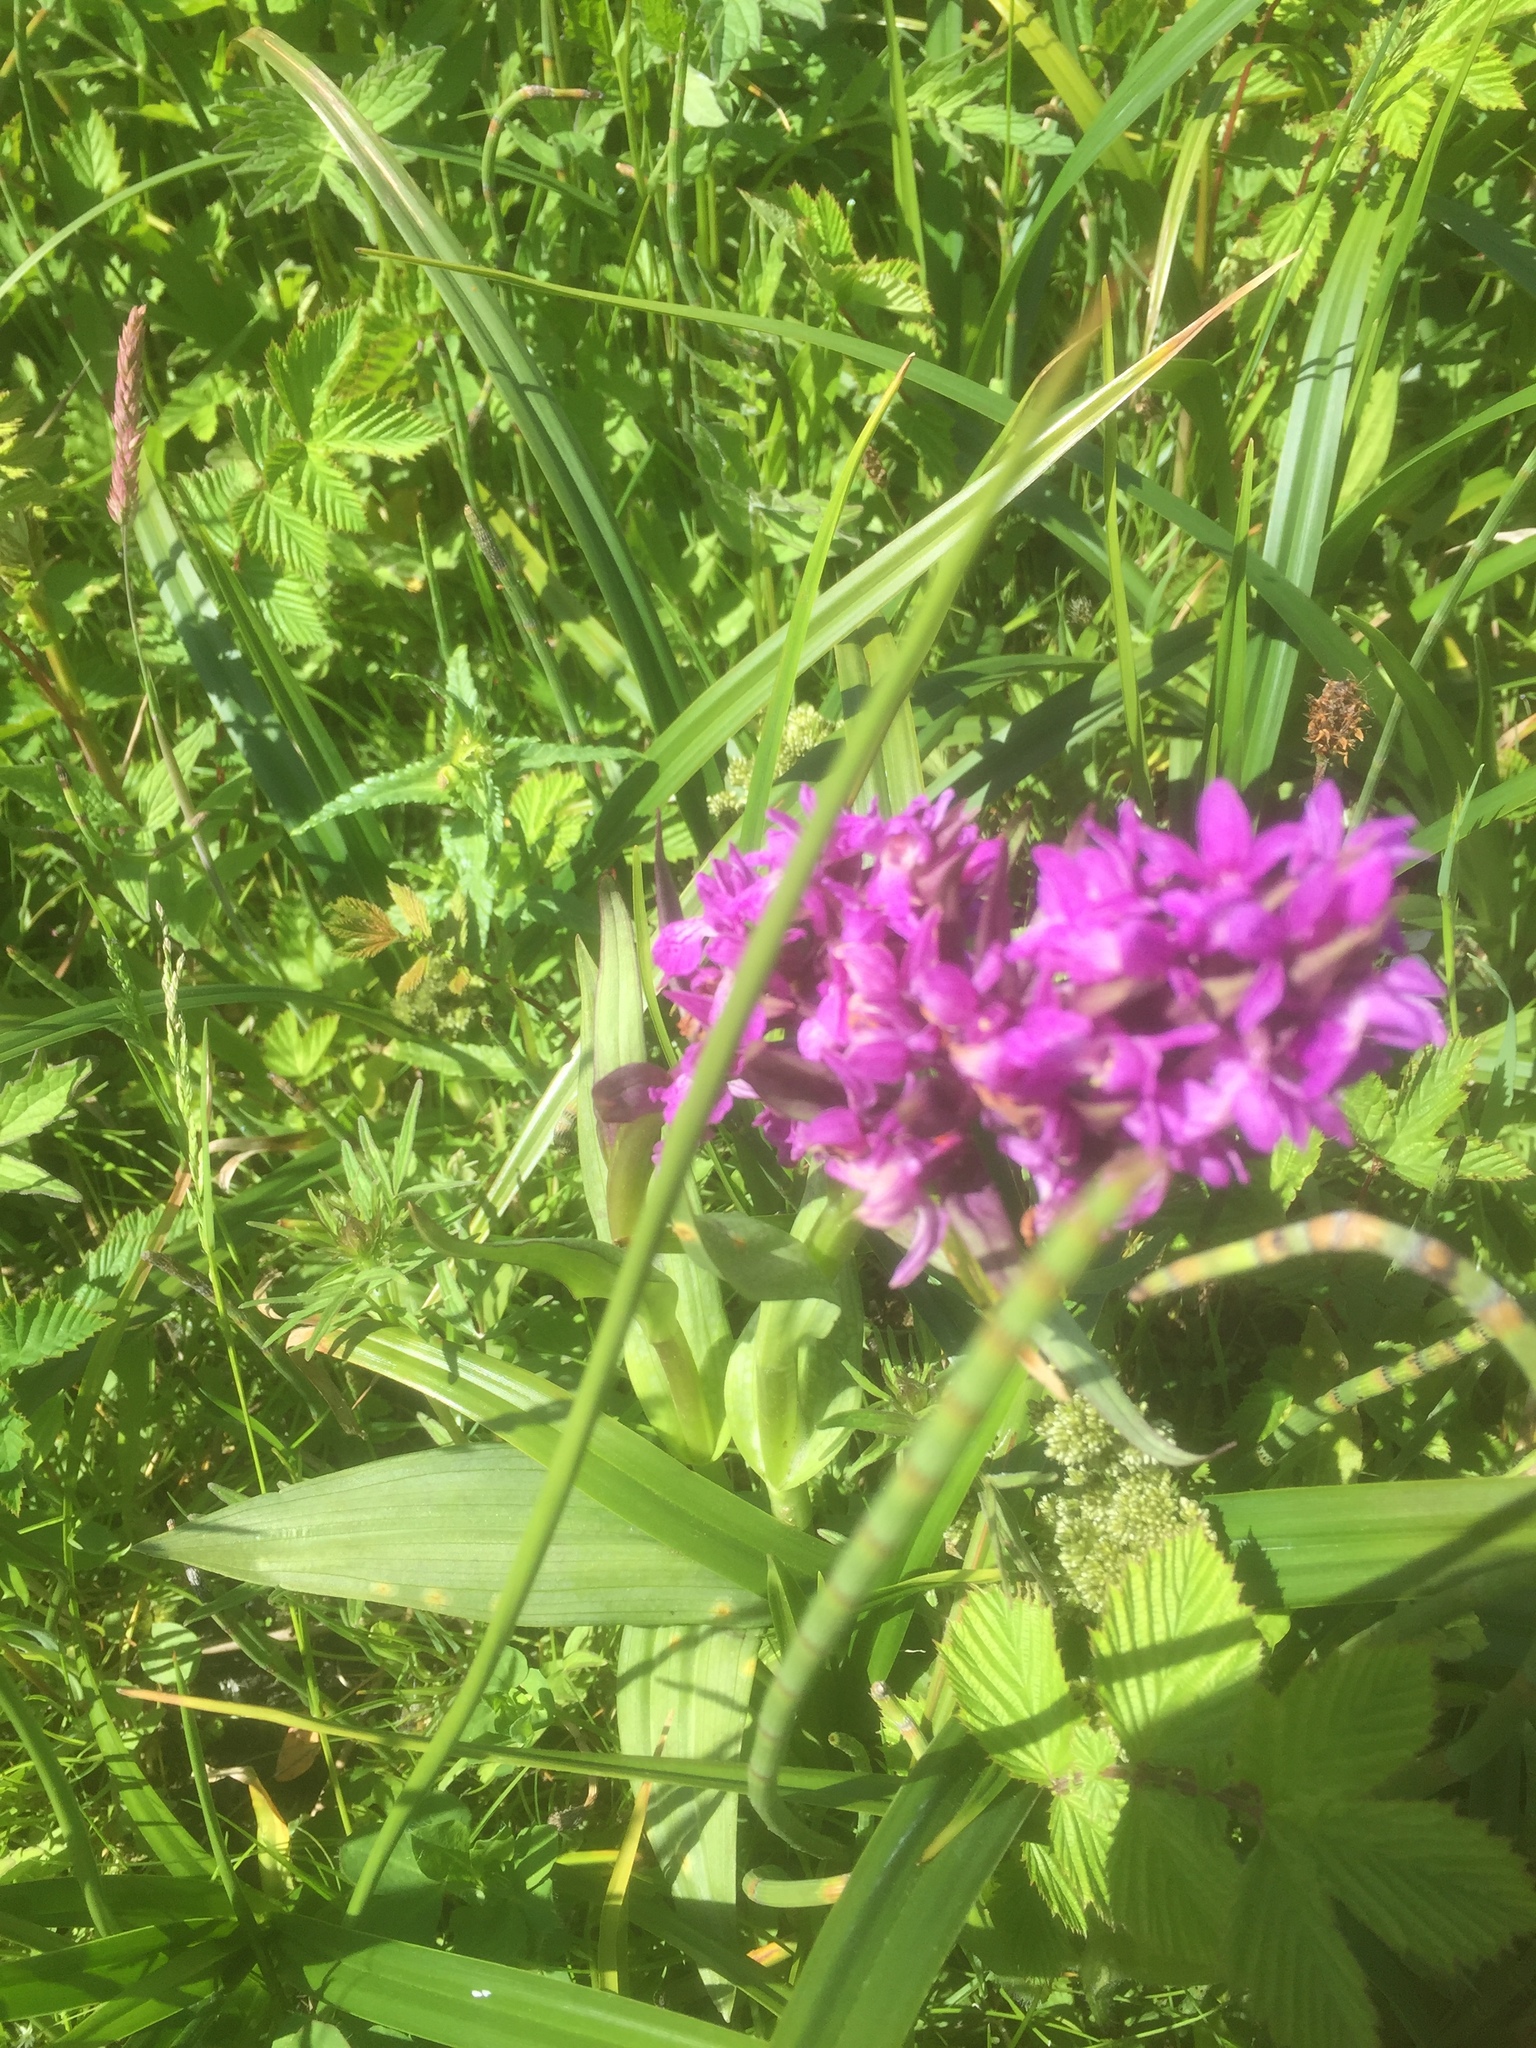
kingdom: Plantae
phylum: Tracheophyta
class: Liliopsida
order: Asparagales
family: Orchidaceae
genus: Dactylorhiza
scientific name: Dactylorhiza majalis
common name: Marsh orchid
